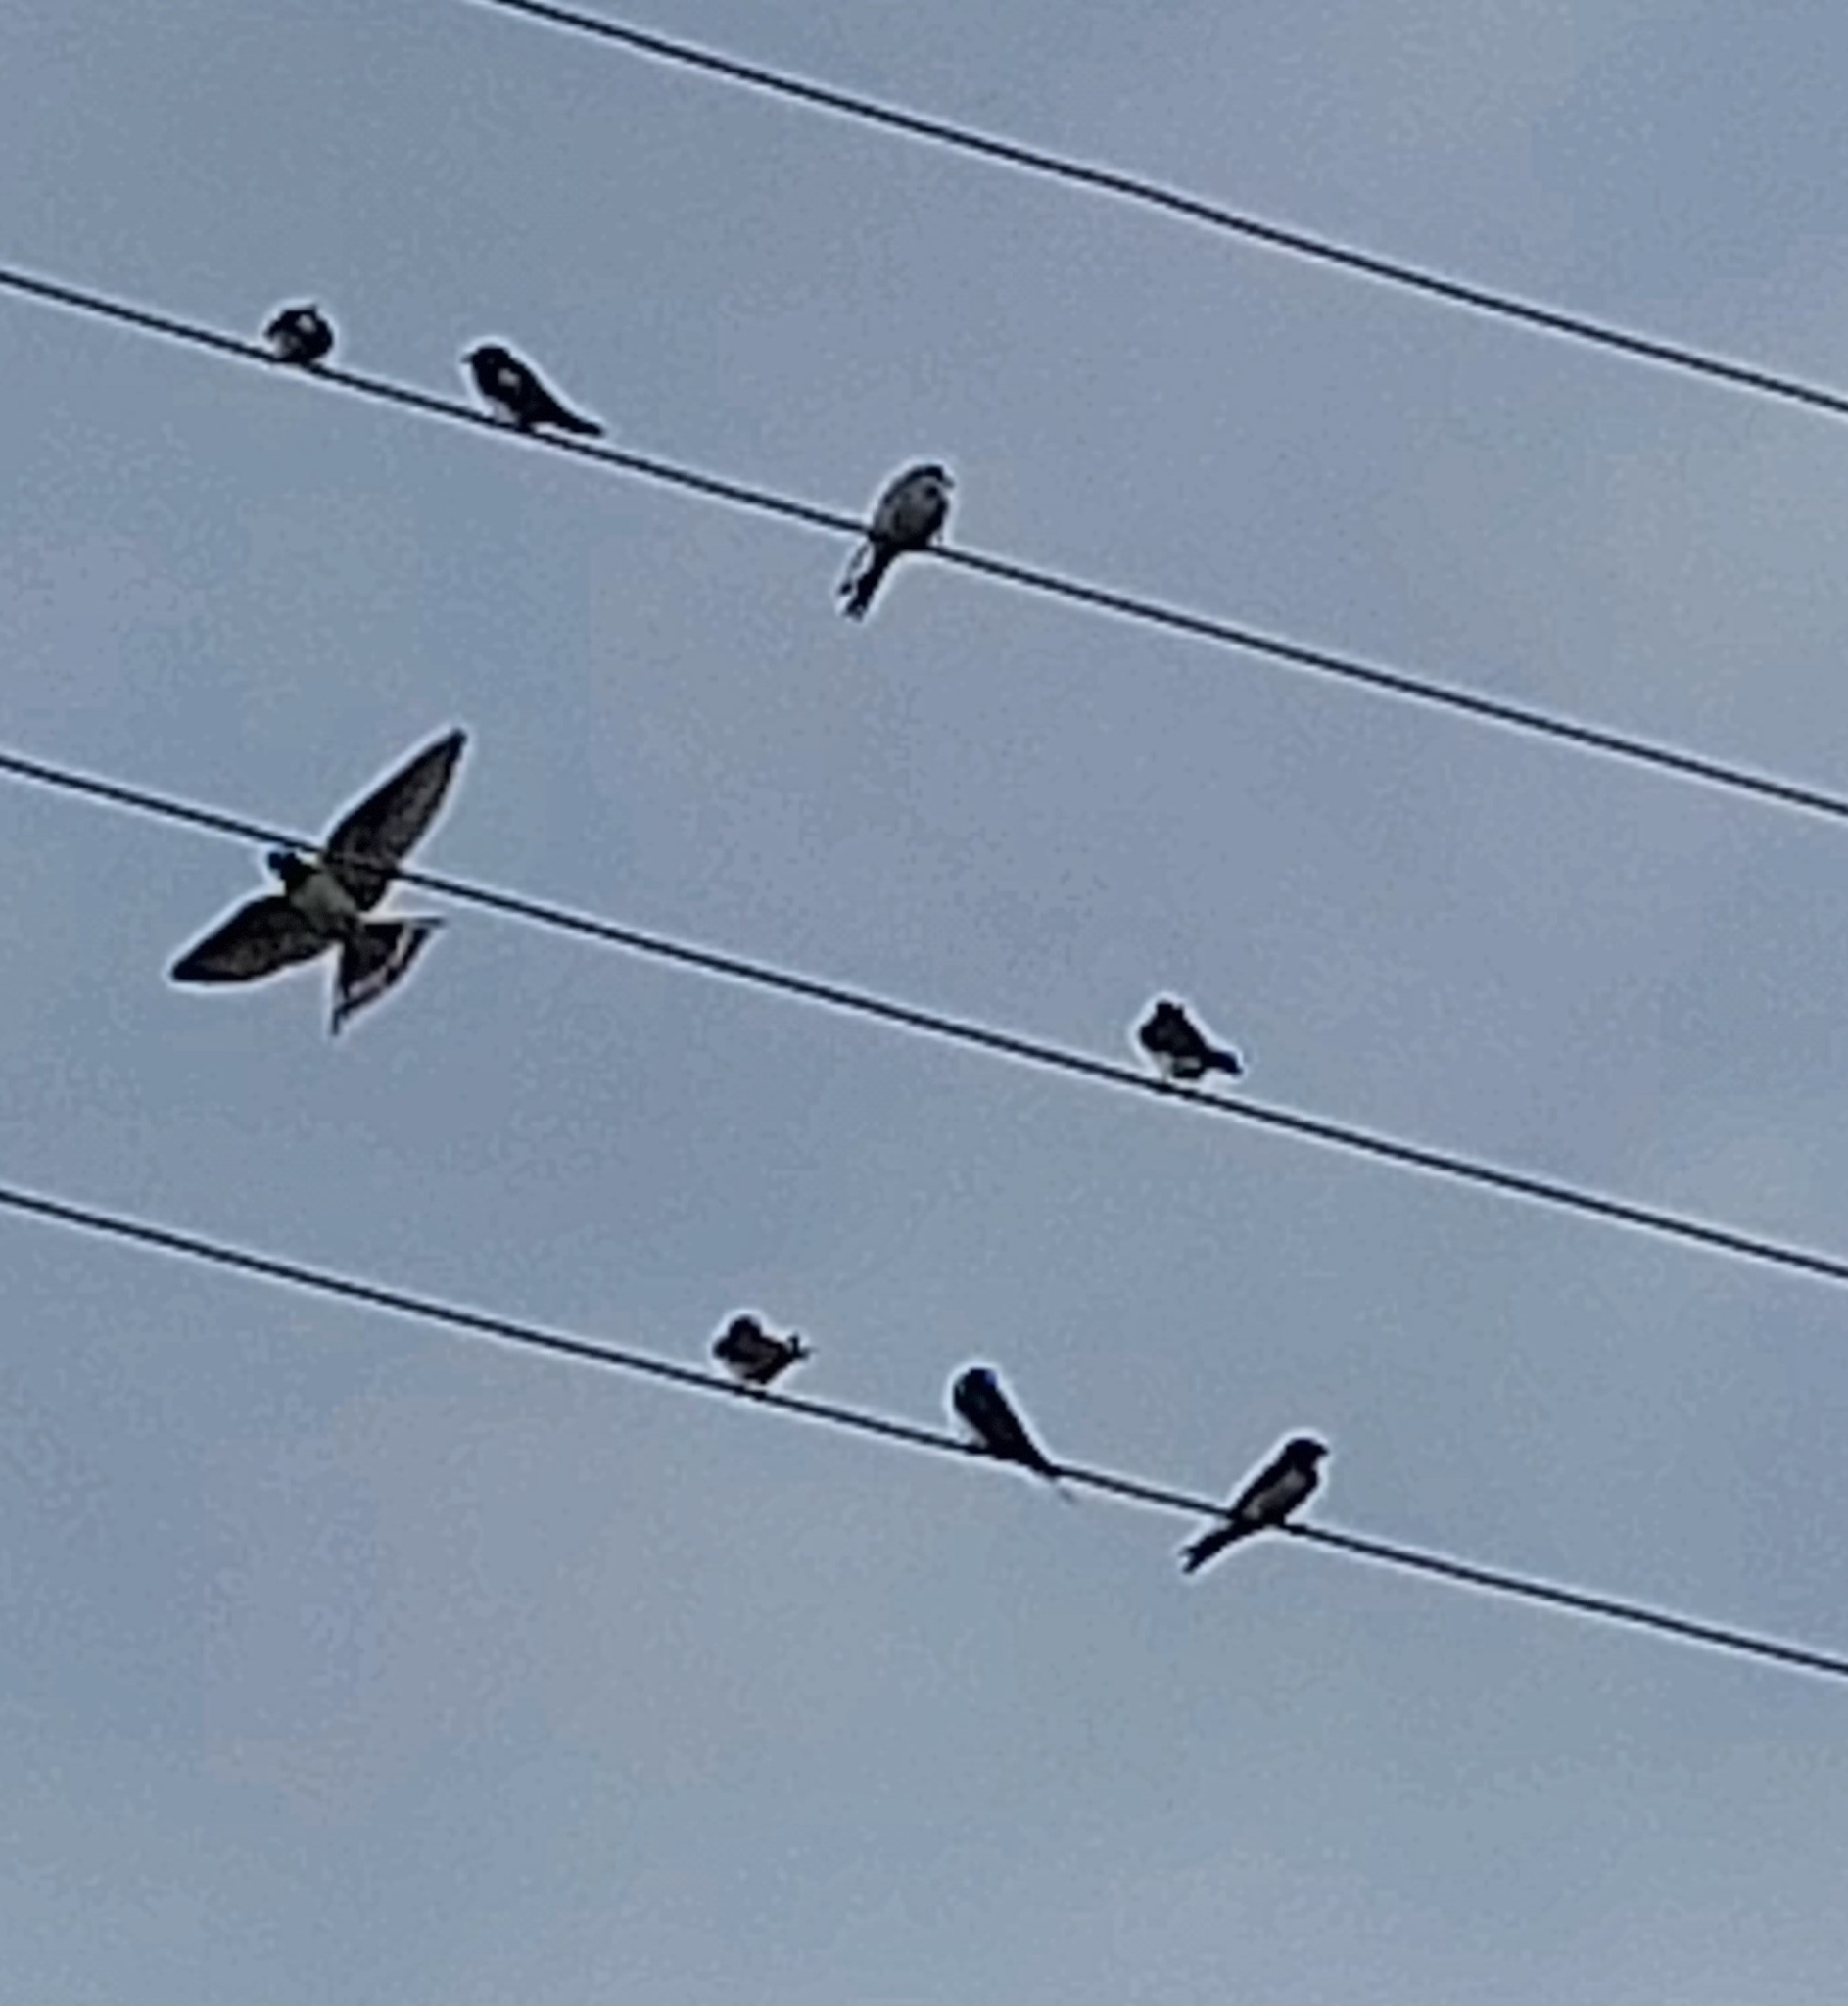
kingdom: Animalia
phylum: Chordata
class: Aves
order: Passeriformes
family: Hirundinidae
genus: Hirundo
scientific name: Hirundo rustica
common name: Barn swallow
